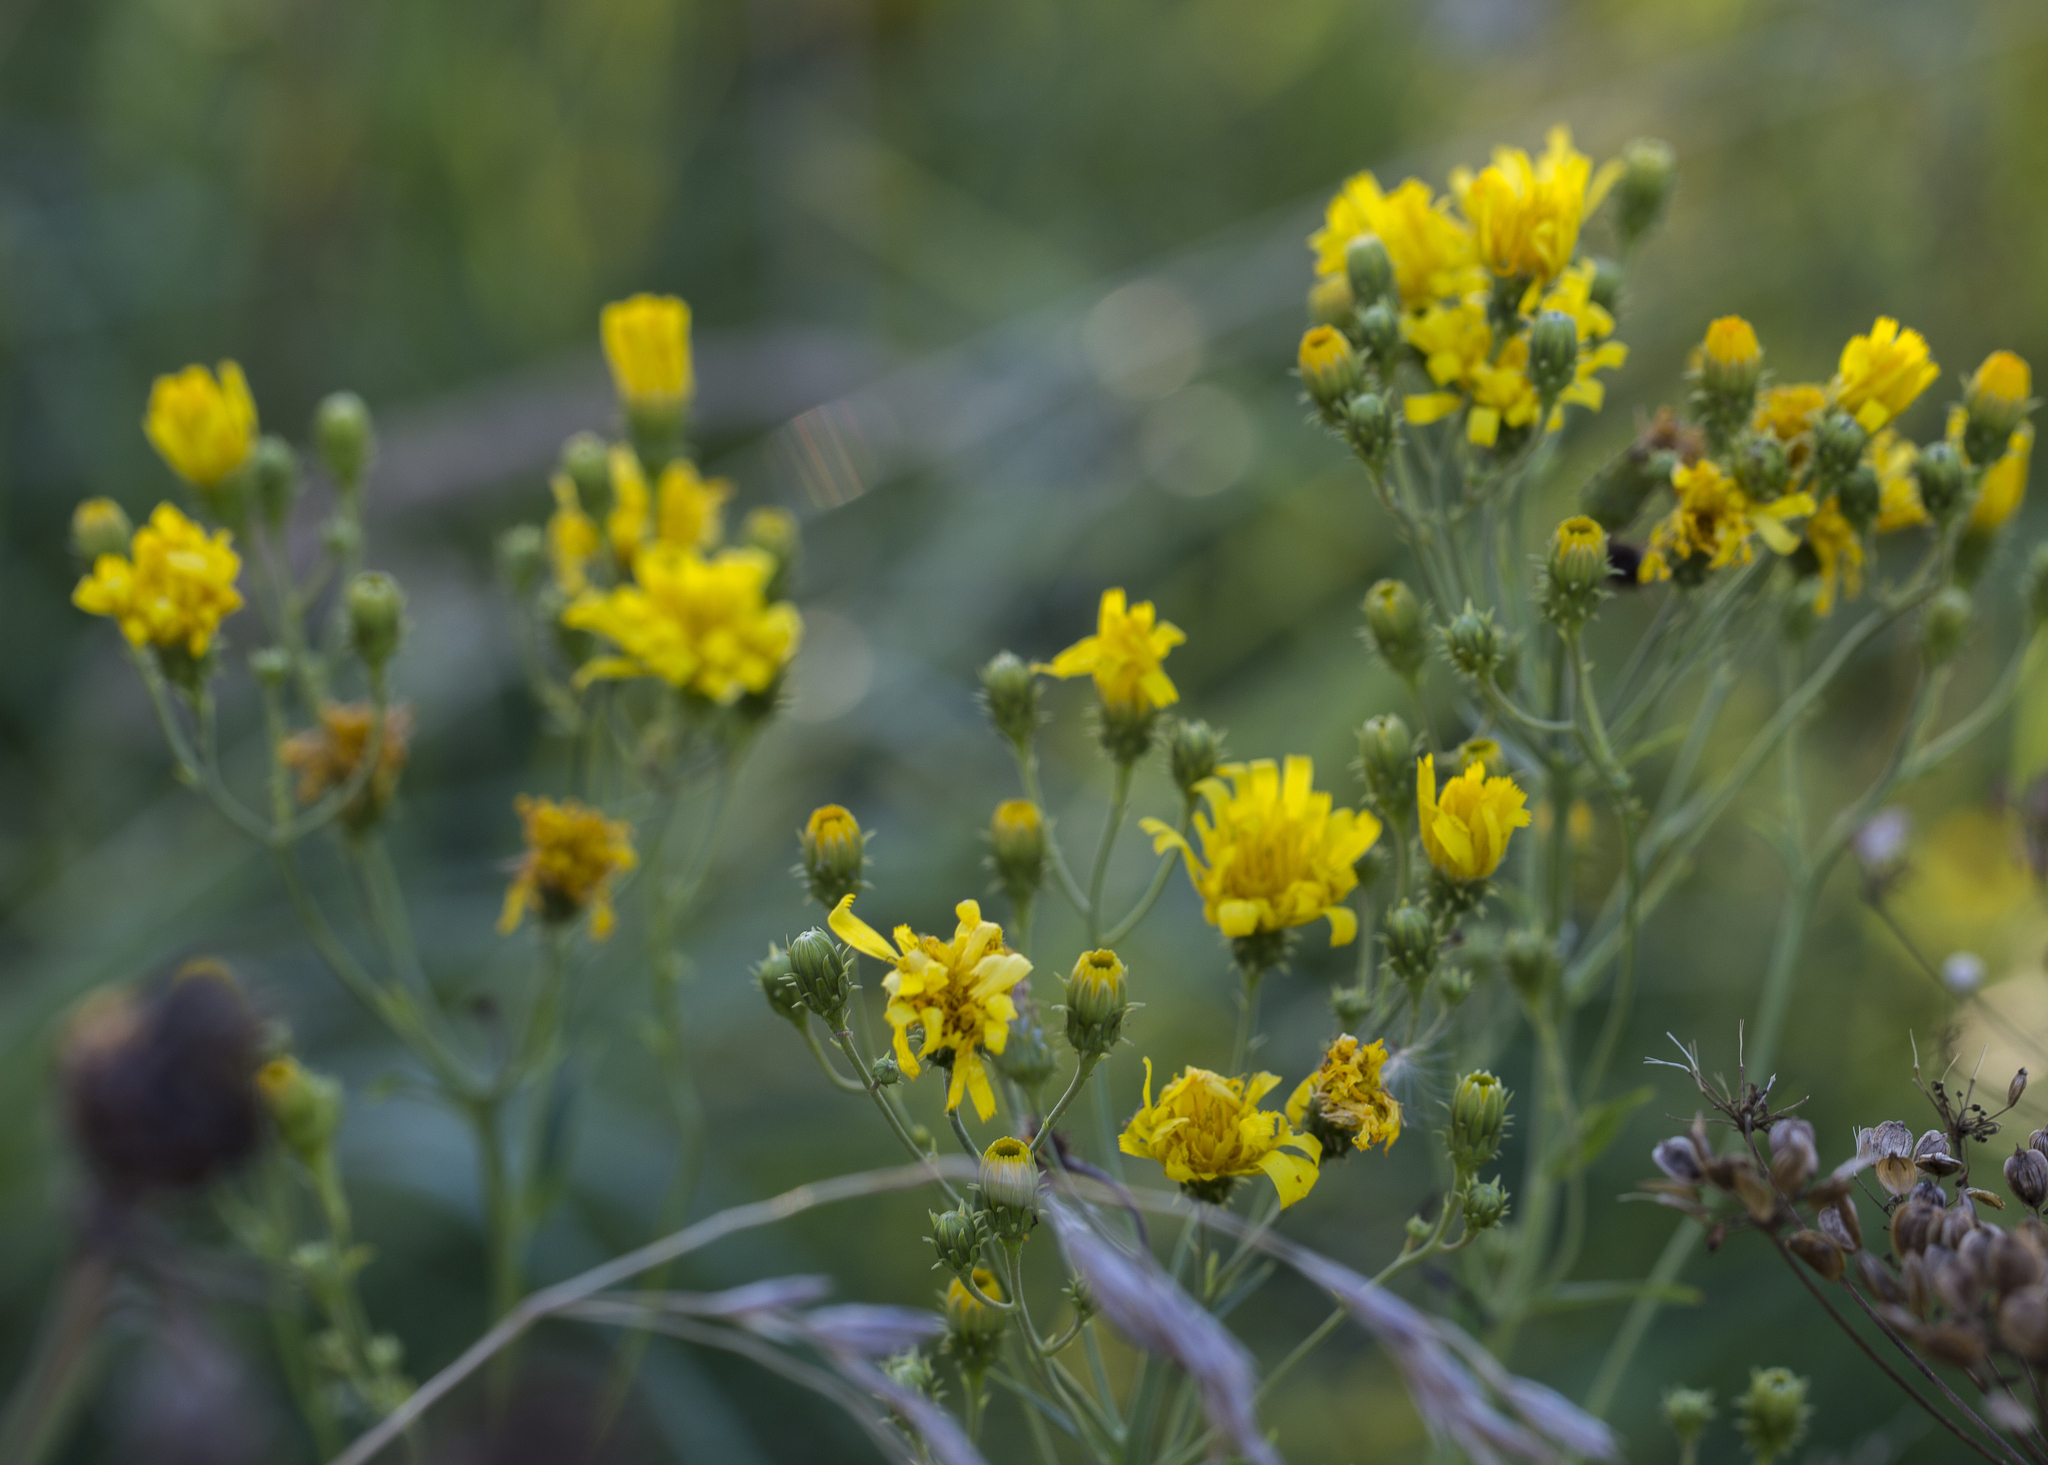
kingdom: Plantae
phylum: Tracheophyta
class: Magnoliopsida
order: Asterales
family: Asteraceae
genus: Hieracium
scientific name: Hieracium umbellatum
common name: Northern hawkweed
